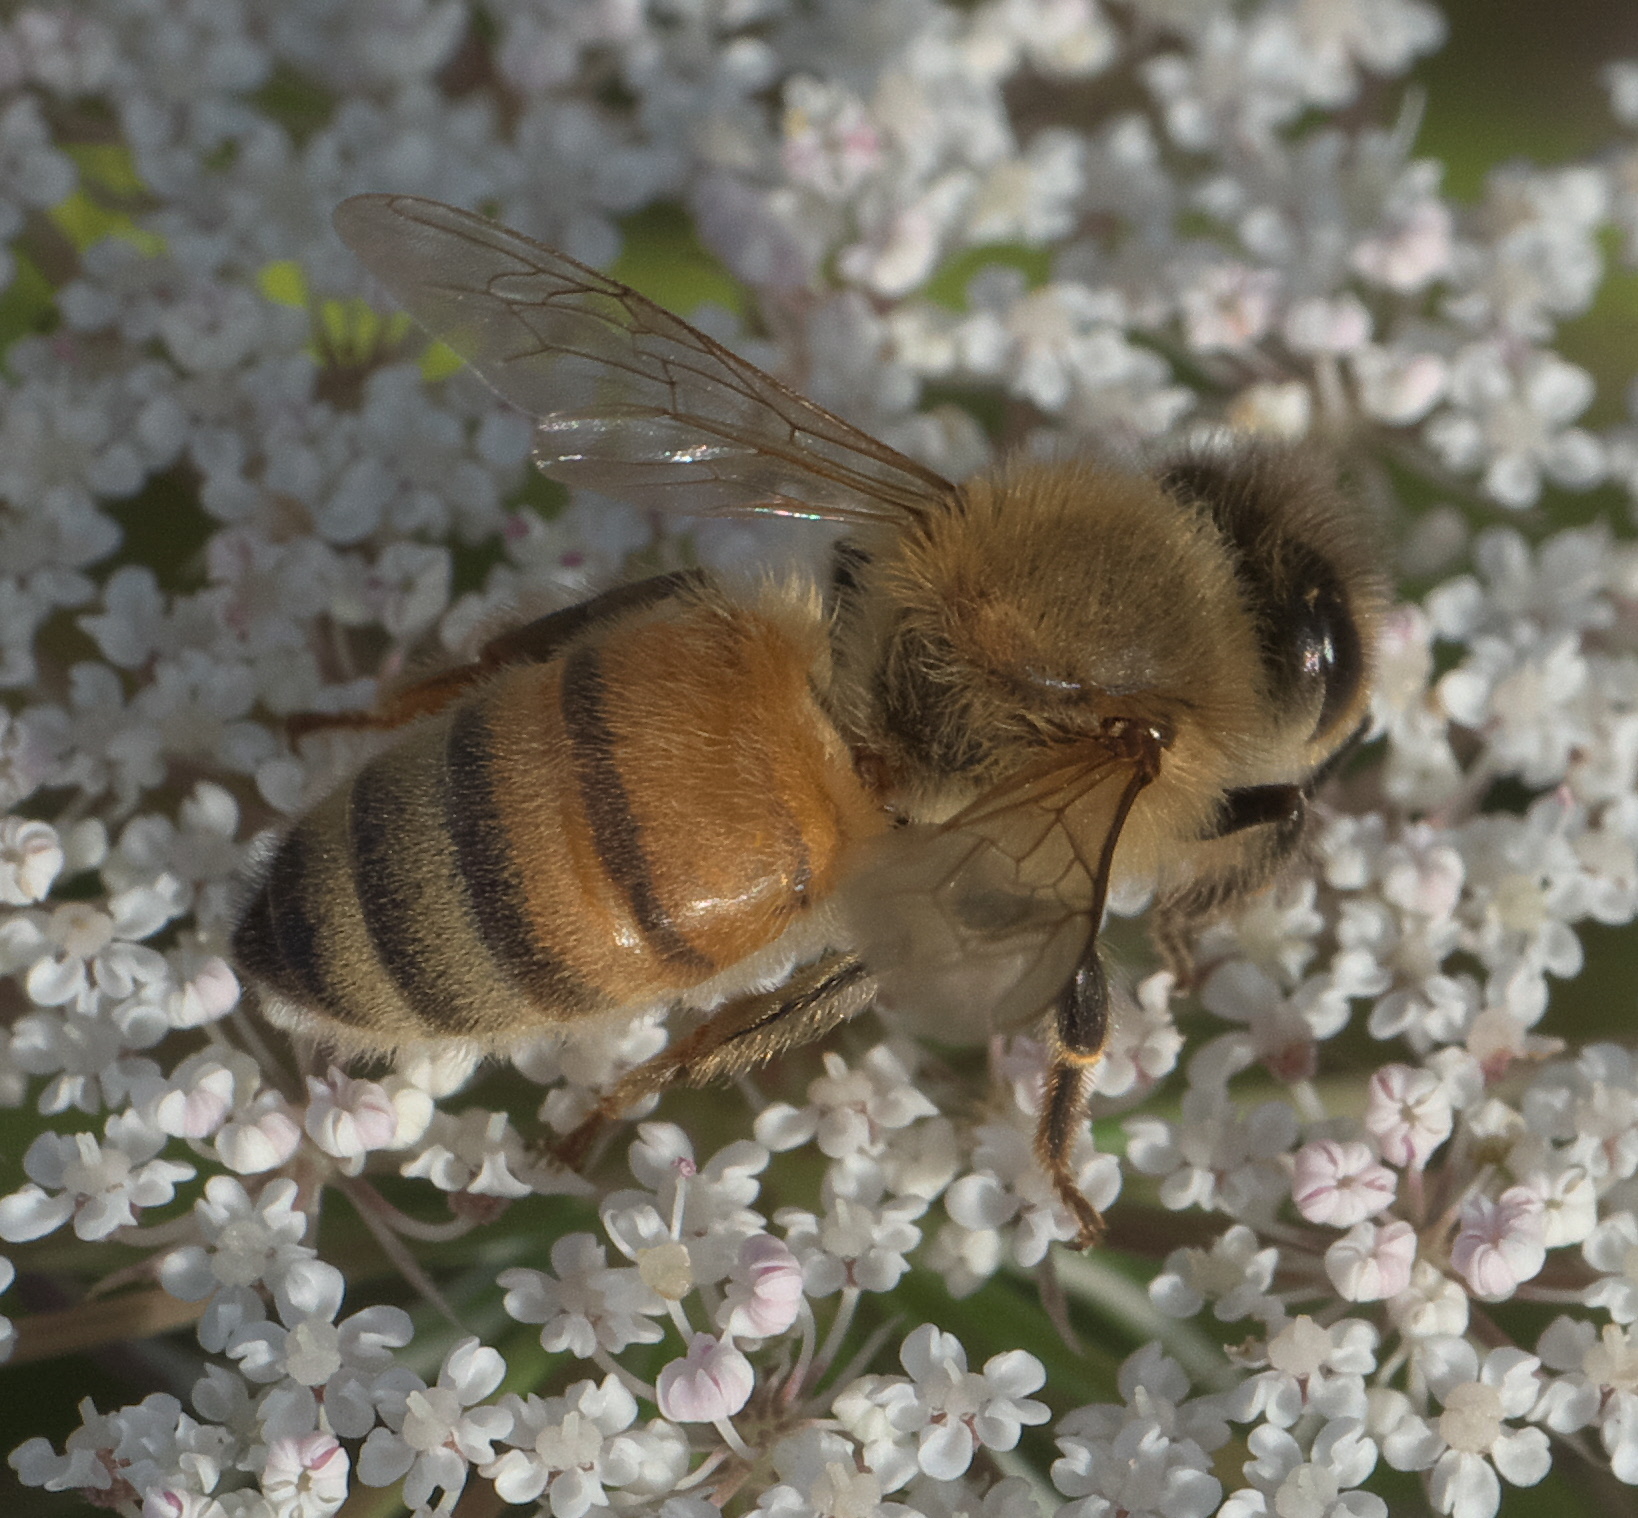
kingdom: Animalia
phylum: Arthropoda
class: Insecta
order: Hymenoptera
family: Apidae
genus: Apis
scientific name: Apis mellifera
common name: Honey bee
